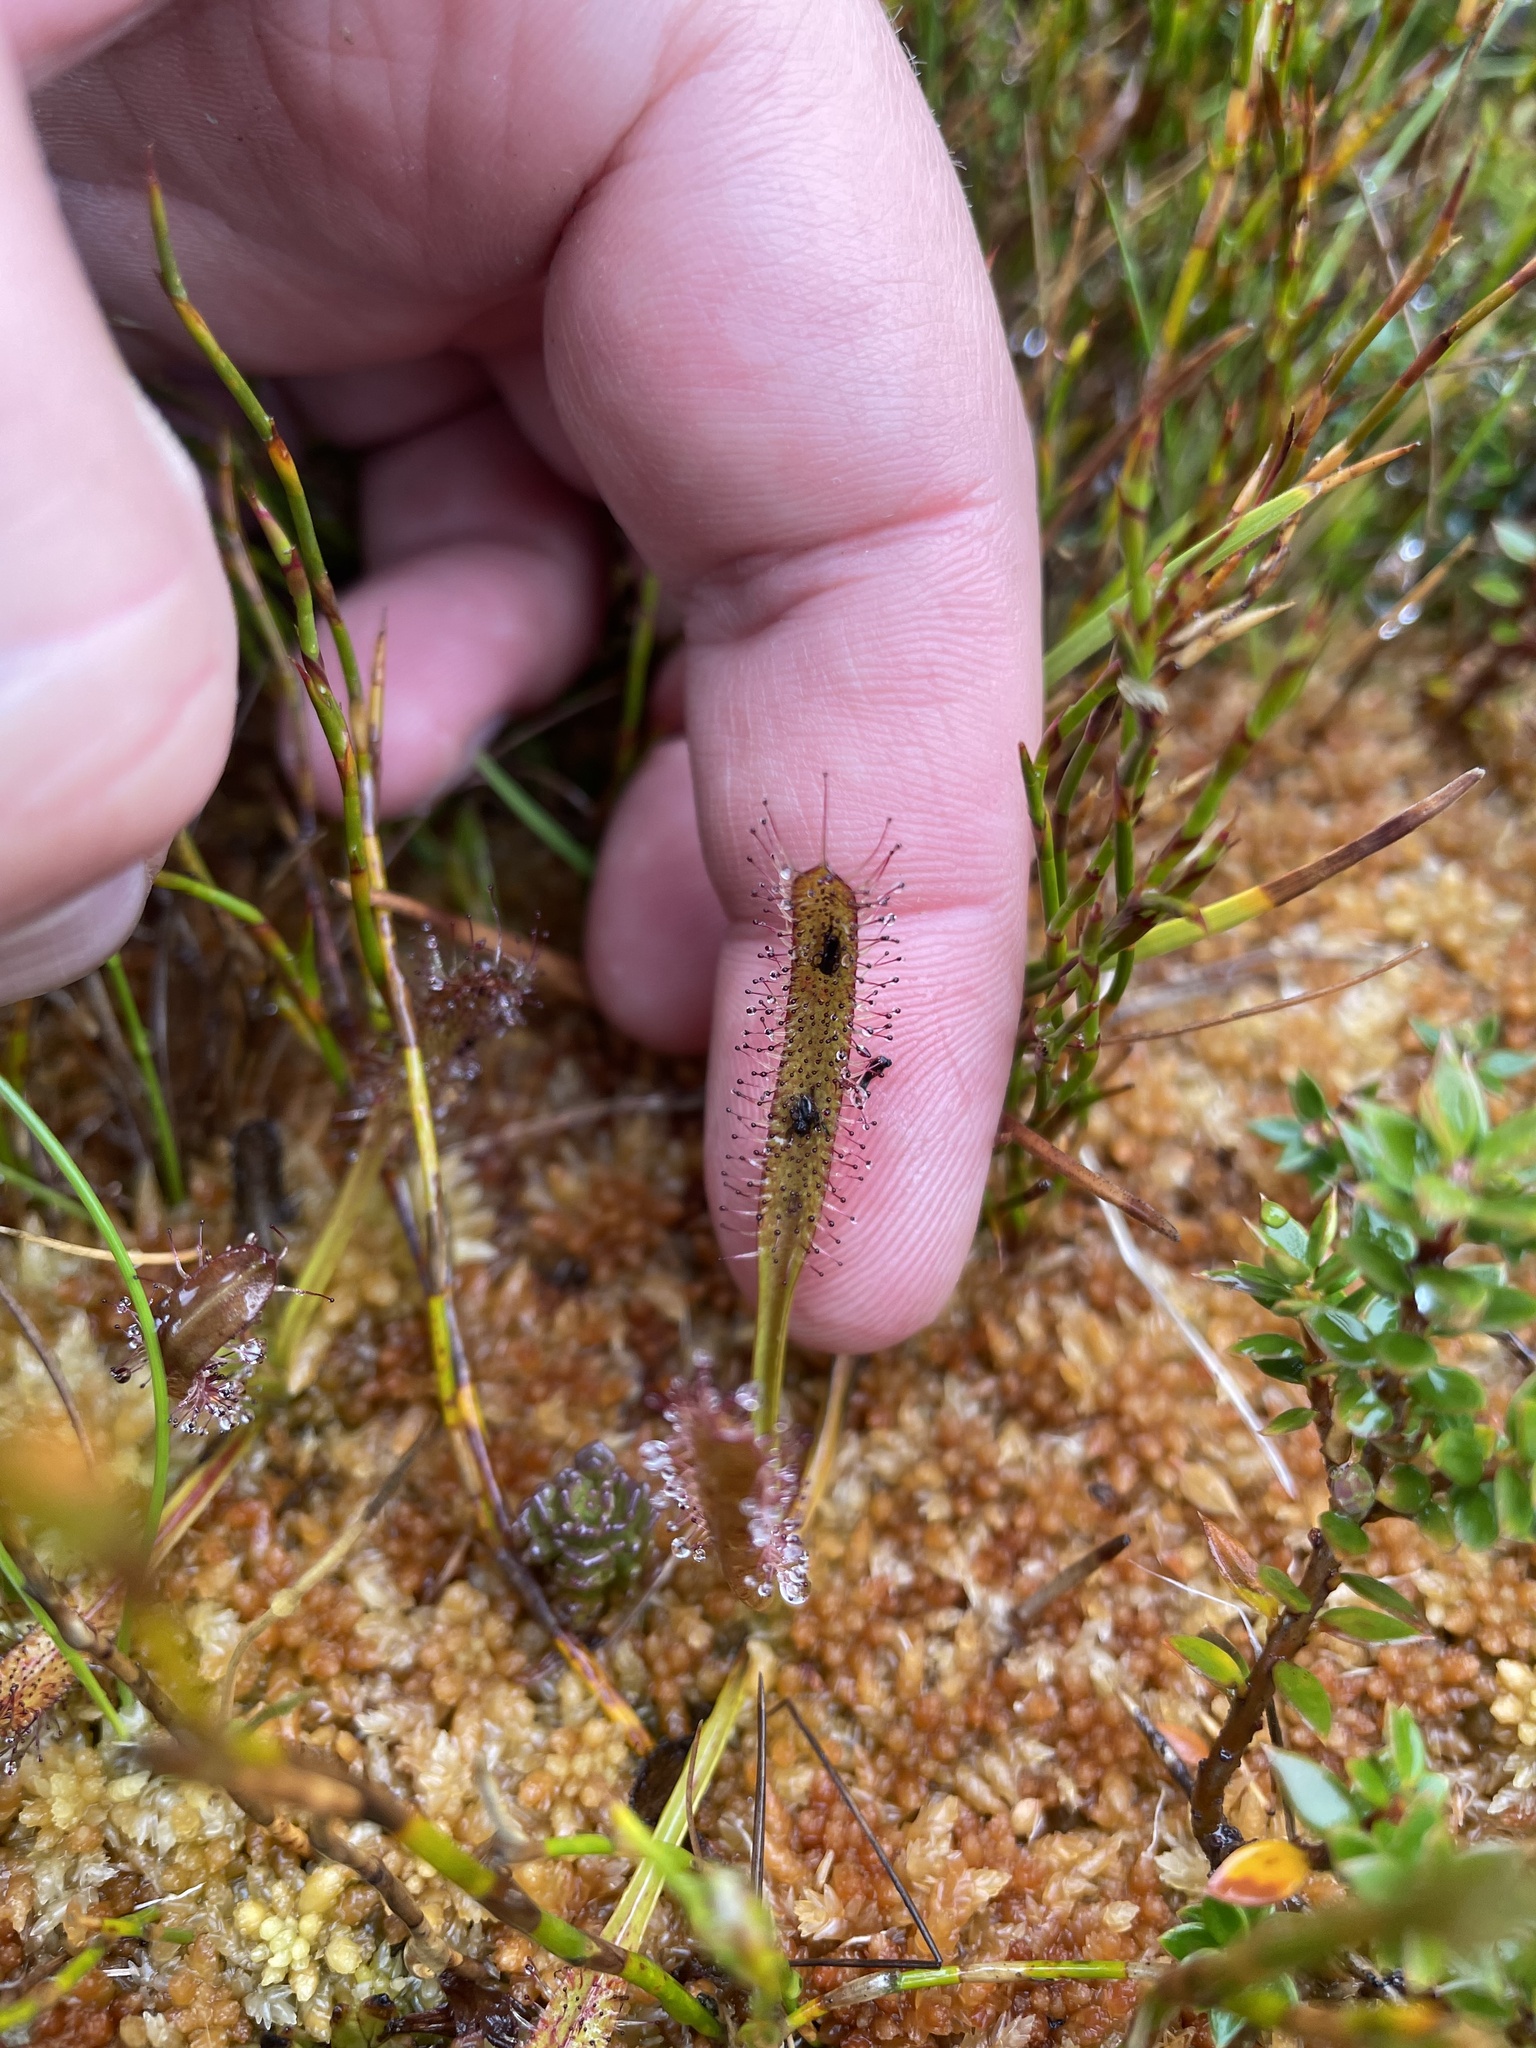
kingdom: Plantae
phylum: Tracheophyta
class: Magnoliopsida
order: Caryophyllales
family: Droseraceae
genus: Drosera
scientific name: Drosera arcturi
